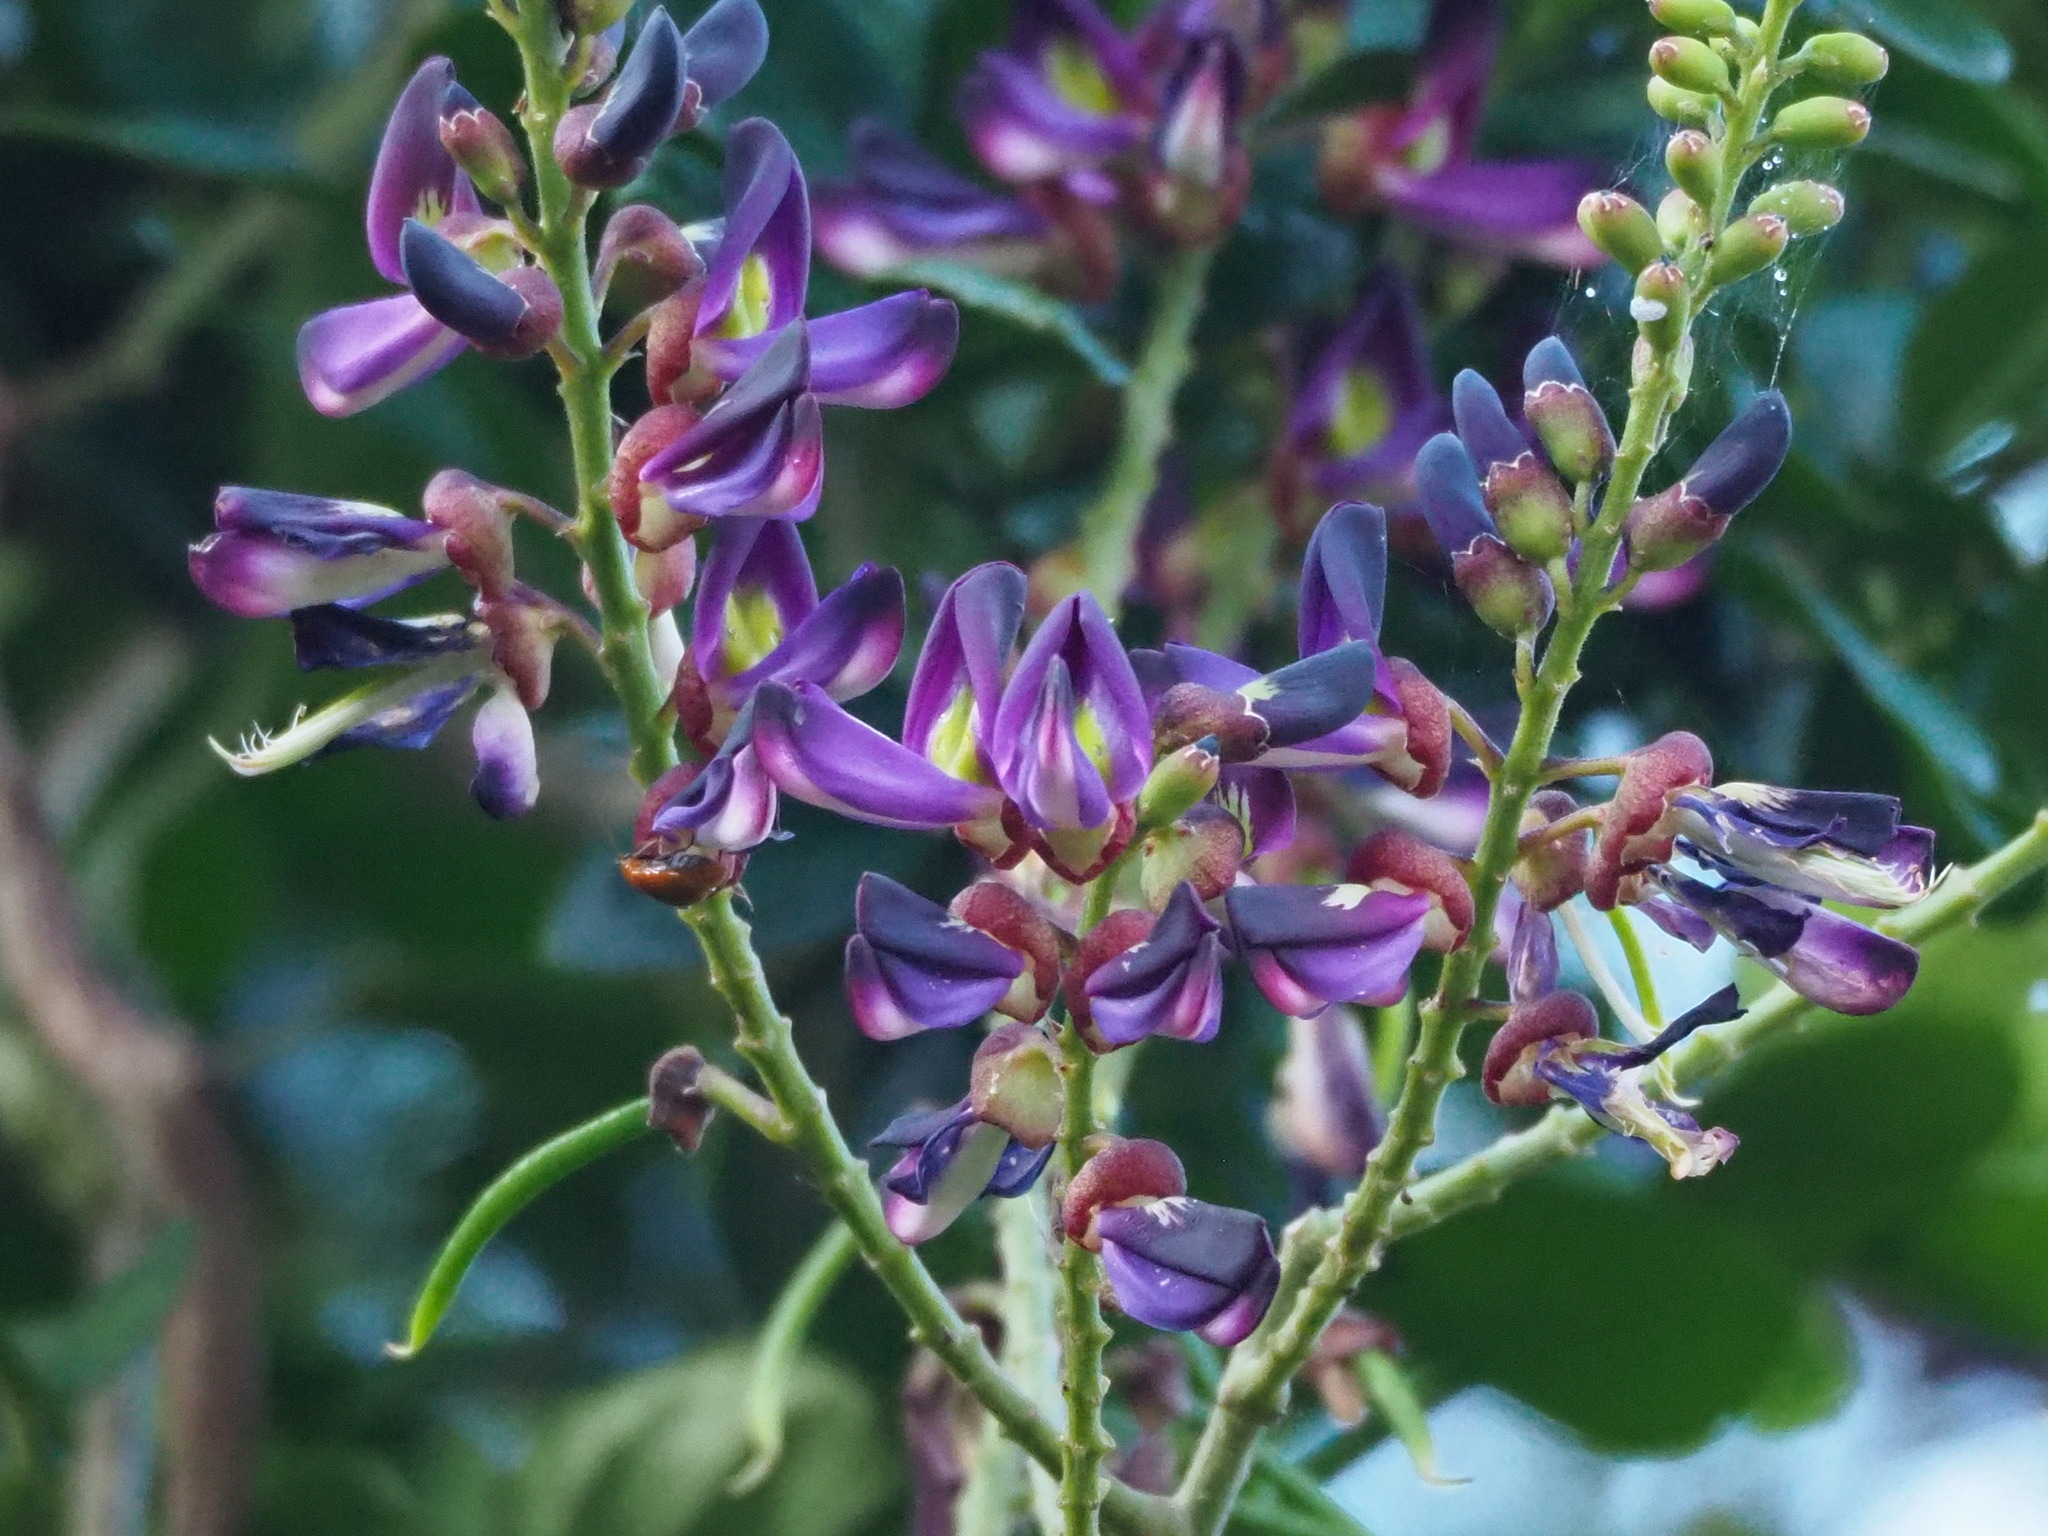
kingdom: Plantae
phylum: Tracheophyta
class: Magnoliopsida
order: Fabales
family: Fabaceae
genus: Wisteriopsis
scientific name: Wisteriopsis reticulata
